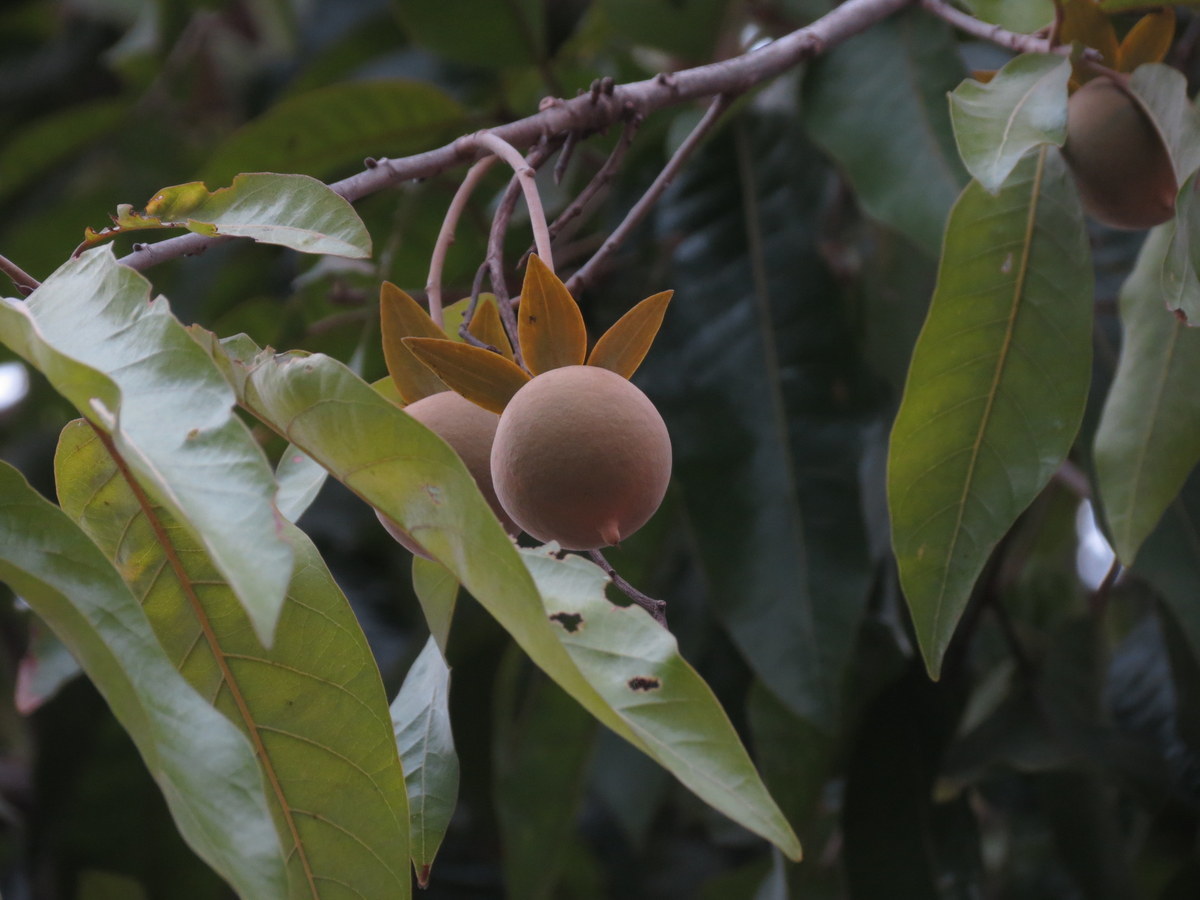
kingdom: Plantae
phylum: Tracheophyta
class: Magnoliopsida
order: Malvales
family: Dipterocarpaceae
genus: Vatica
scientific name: Vatica chinensis
